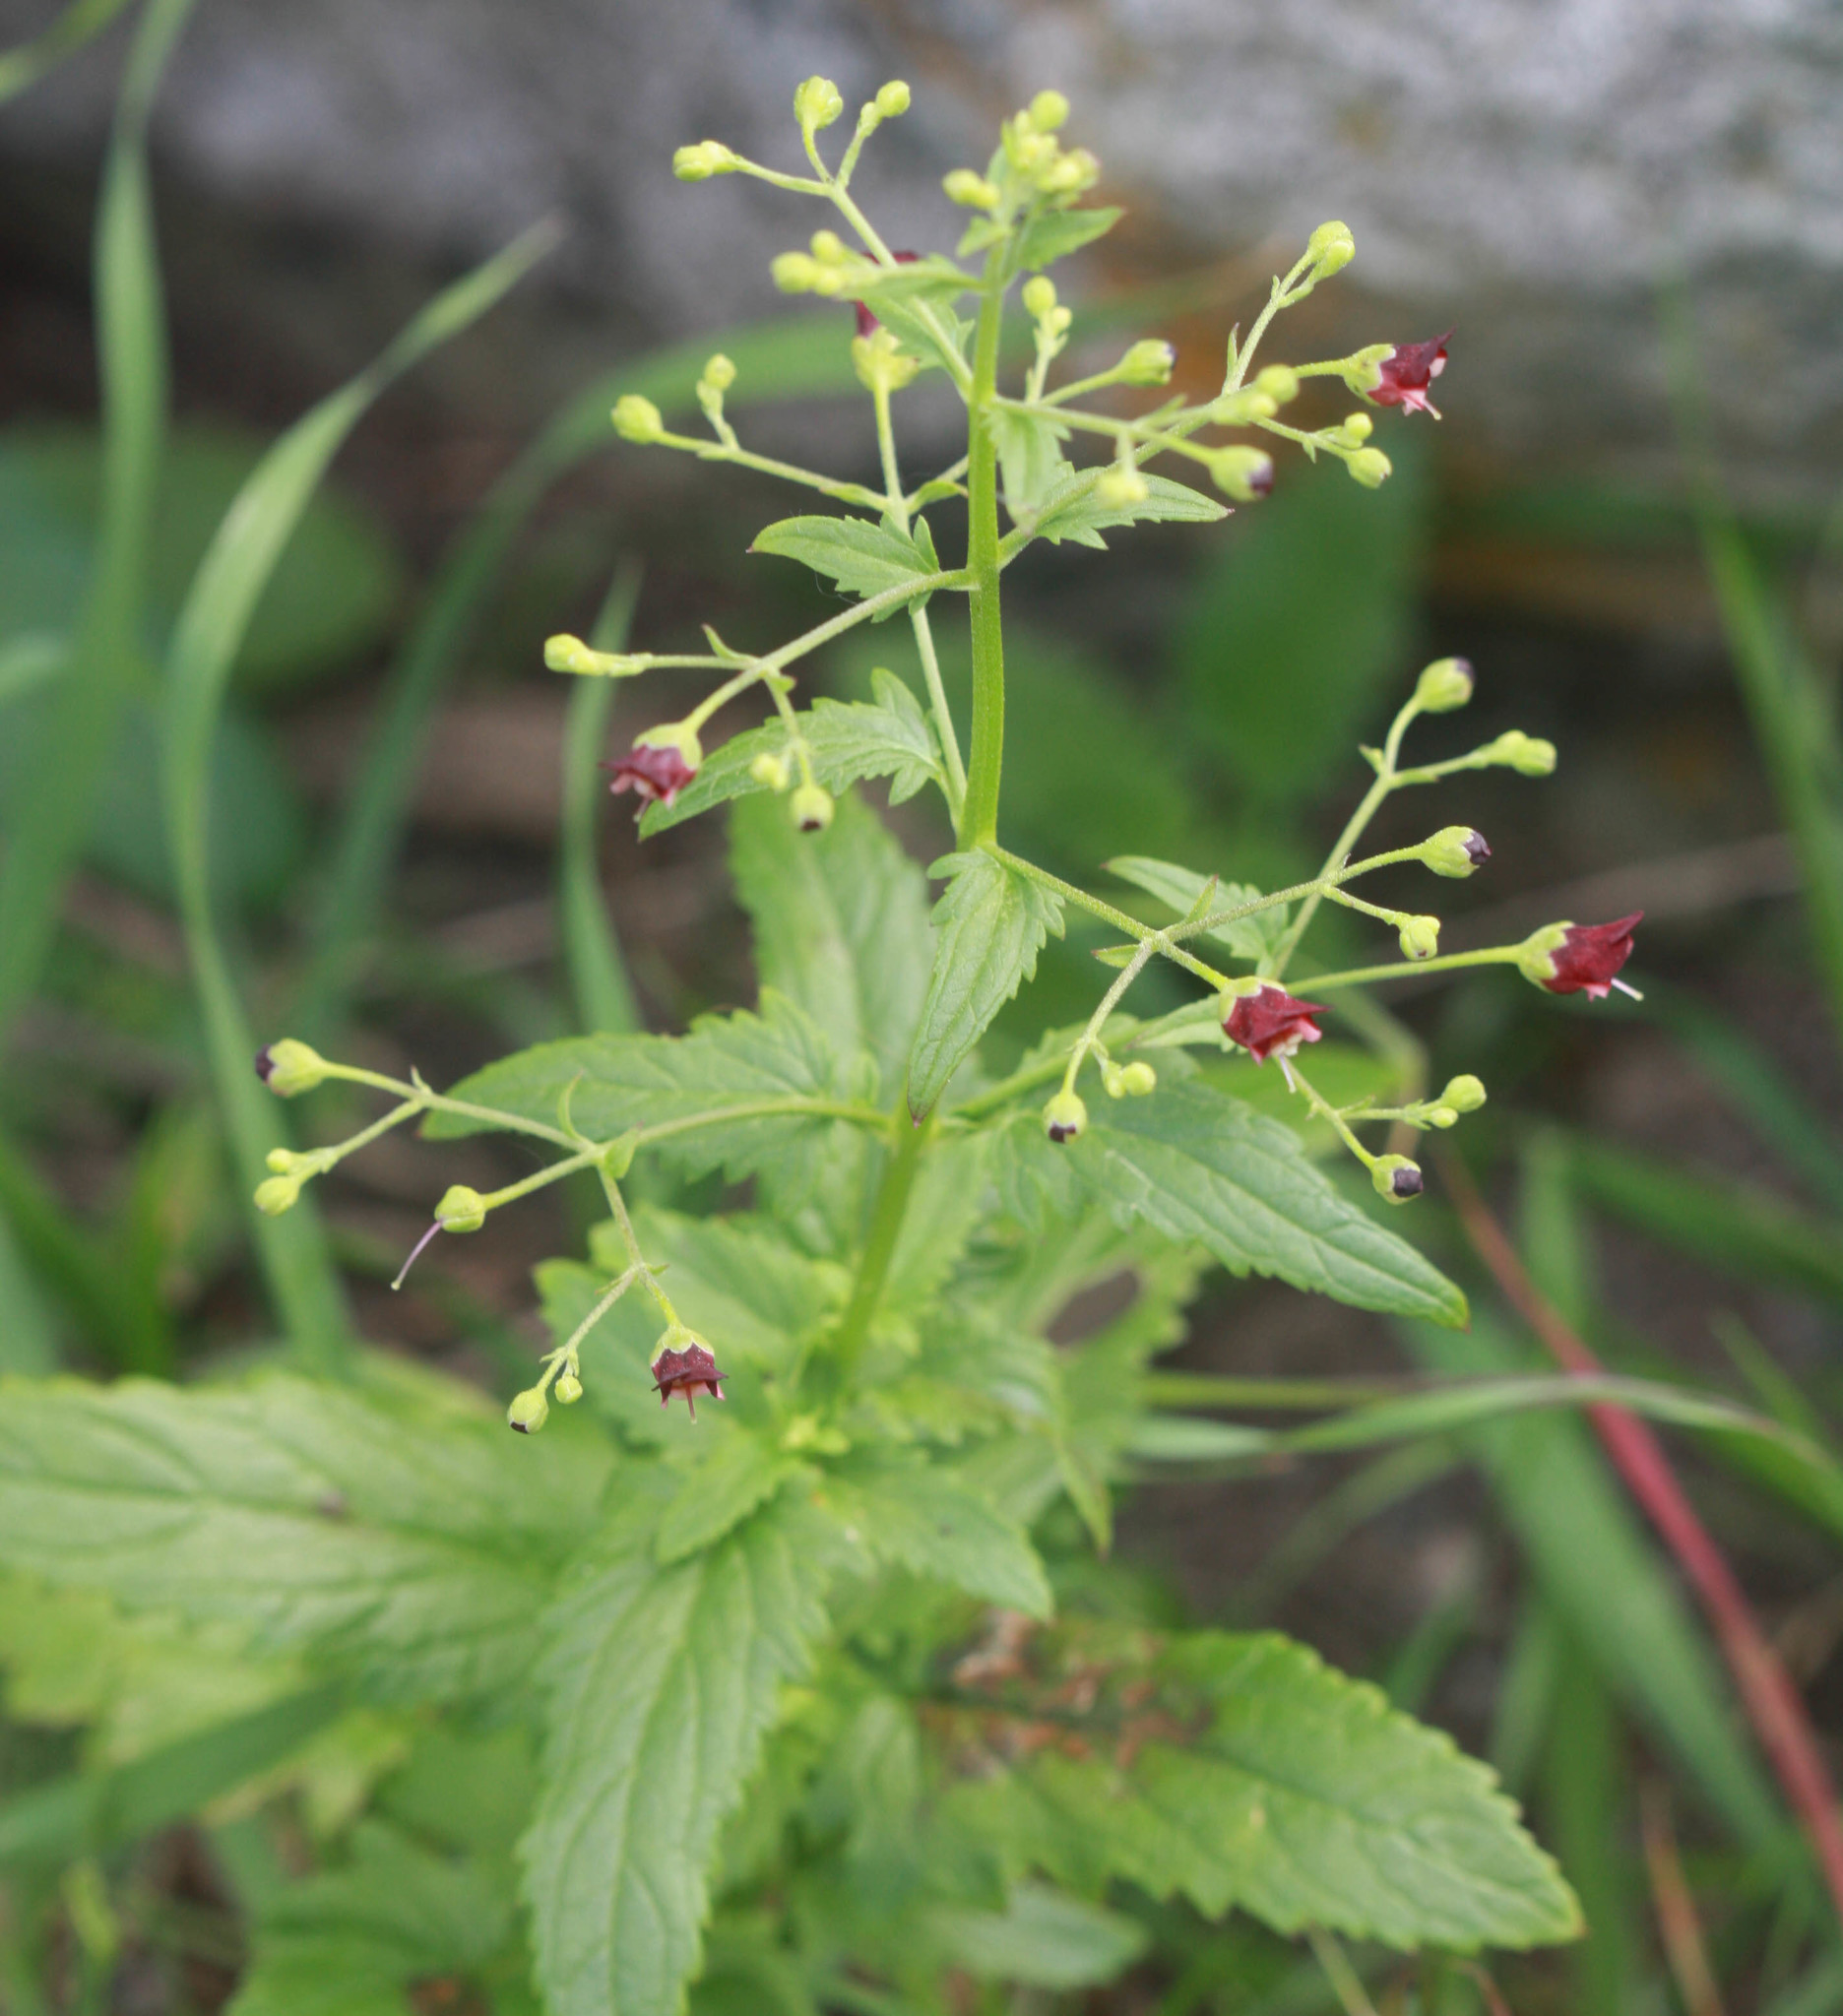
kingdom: Plantae
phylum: Tracheophyta
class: Magnoliopsida
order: Lamiales
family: Scrophulariaceae
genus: Scrophularia
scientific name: Scrophularia californica
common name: California figwort
